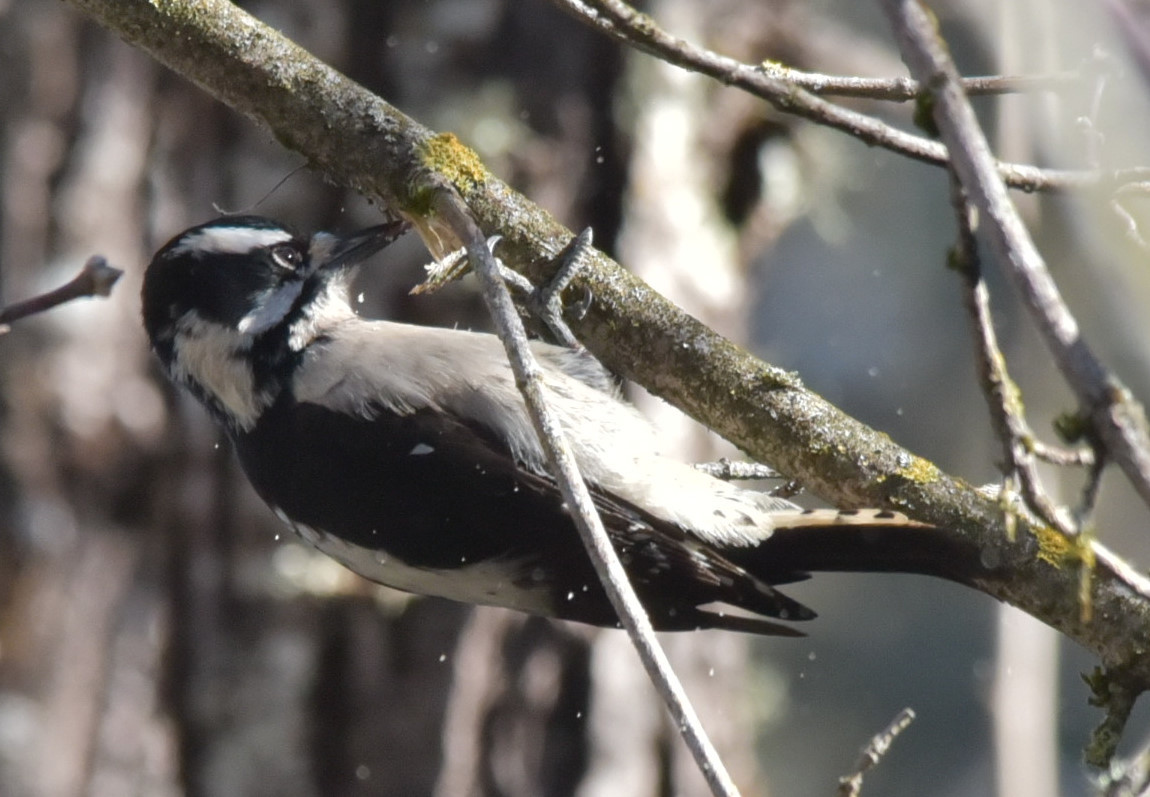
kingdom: Animalia
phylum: Chordata
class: Aves
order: Piciformes
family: Picidae
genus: Dryobates
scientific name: Dryobates pubescens
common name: Downy woodpecker
